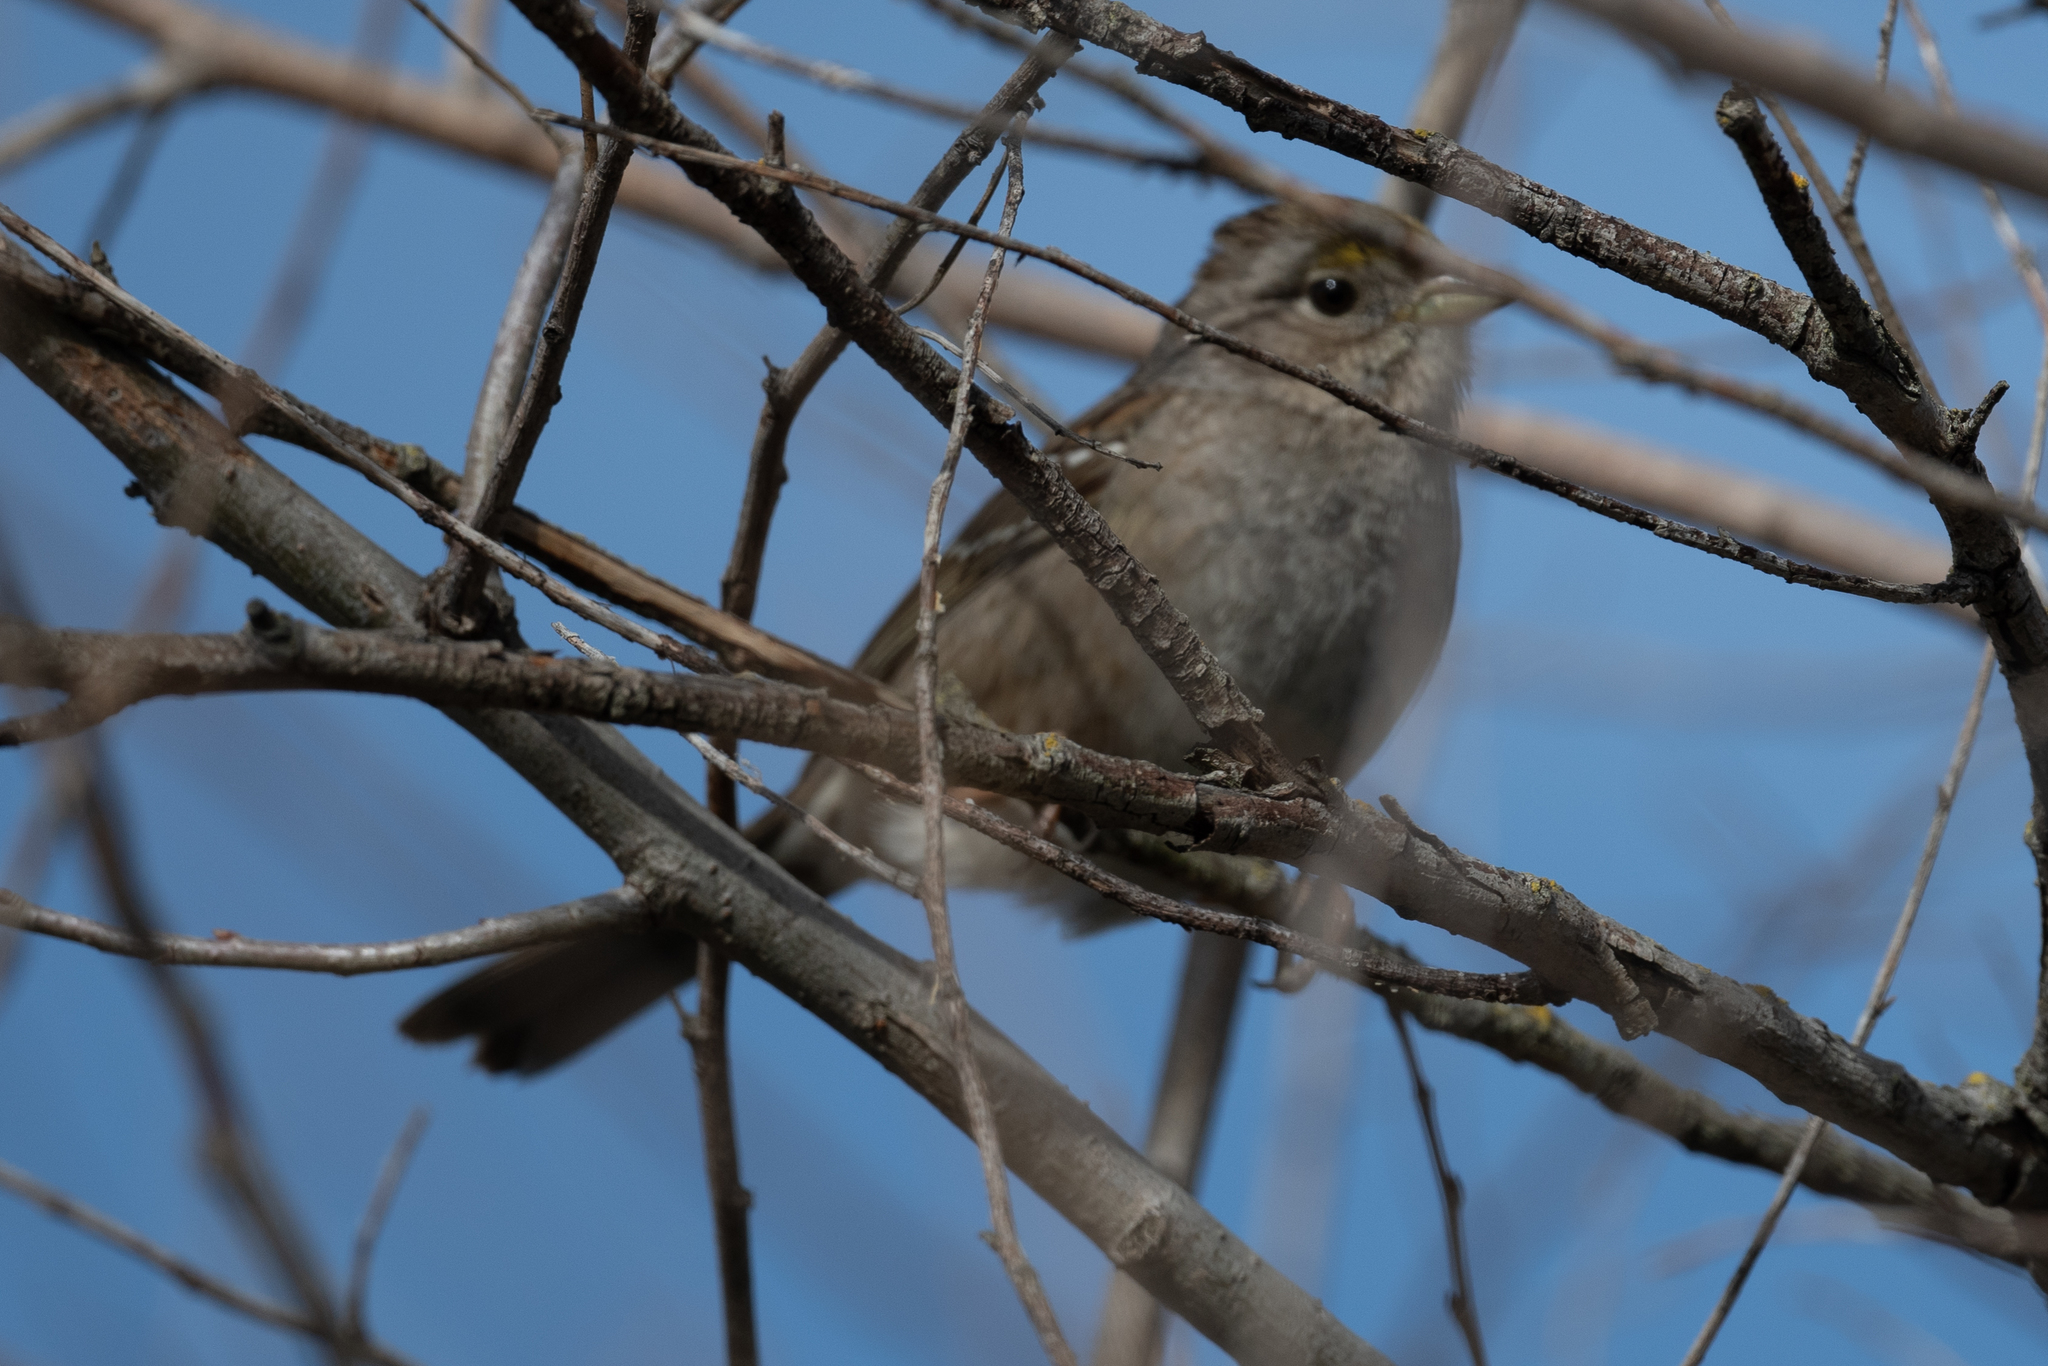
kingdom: Animalia
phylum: Chordata
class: Aves
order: Passeriformes
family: Passerellidae
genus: Zonotrichia
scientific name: Zonotrichia atricapilla
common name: Golden-crowned sparrow
